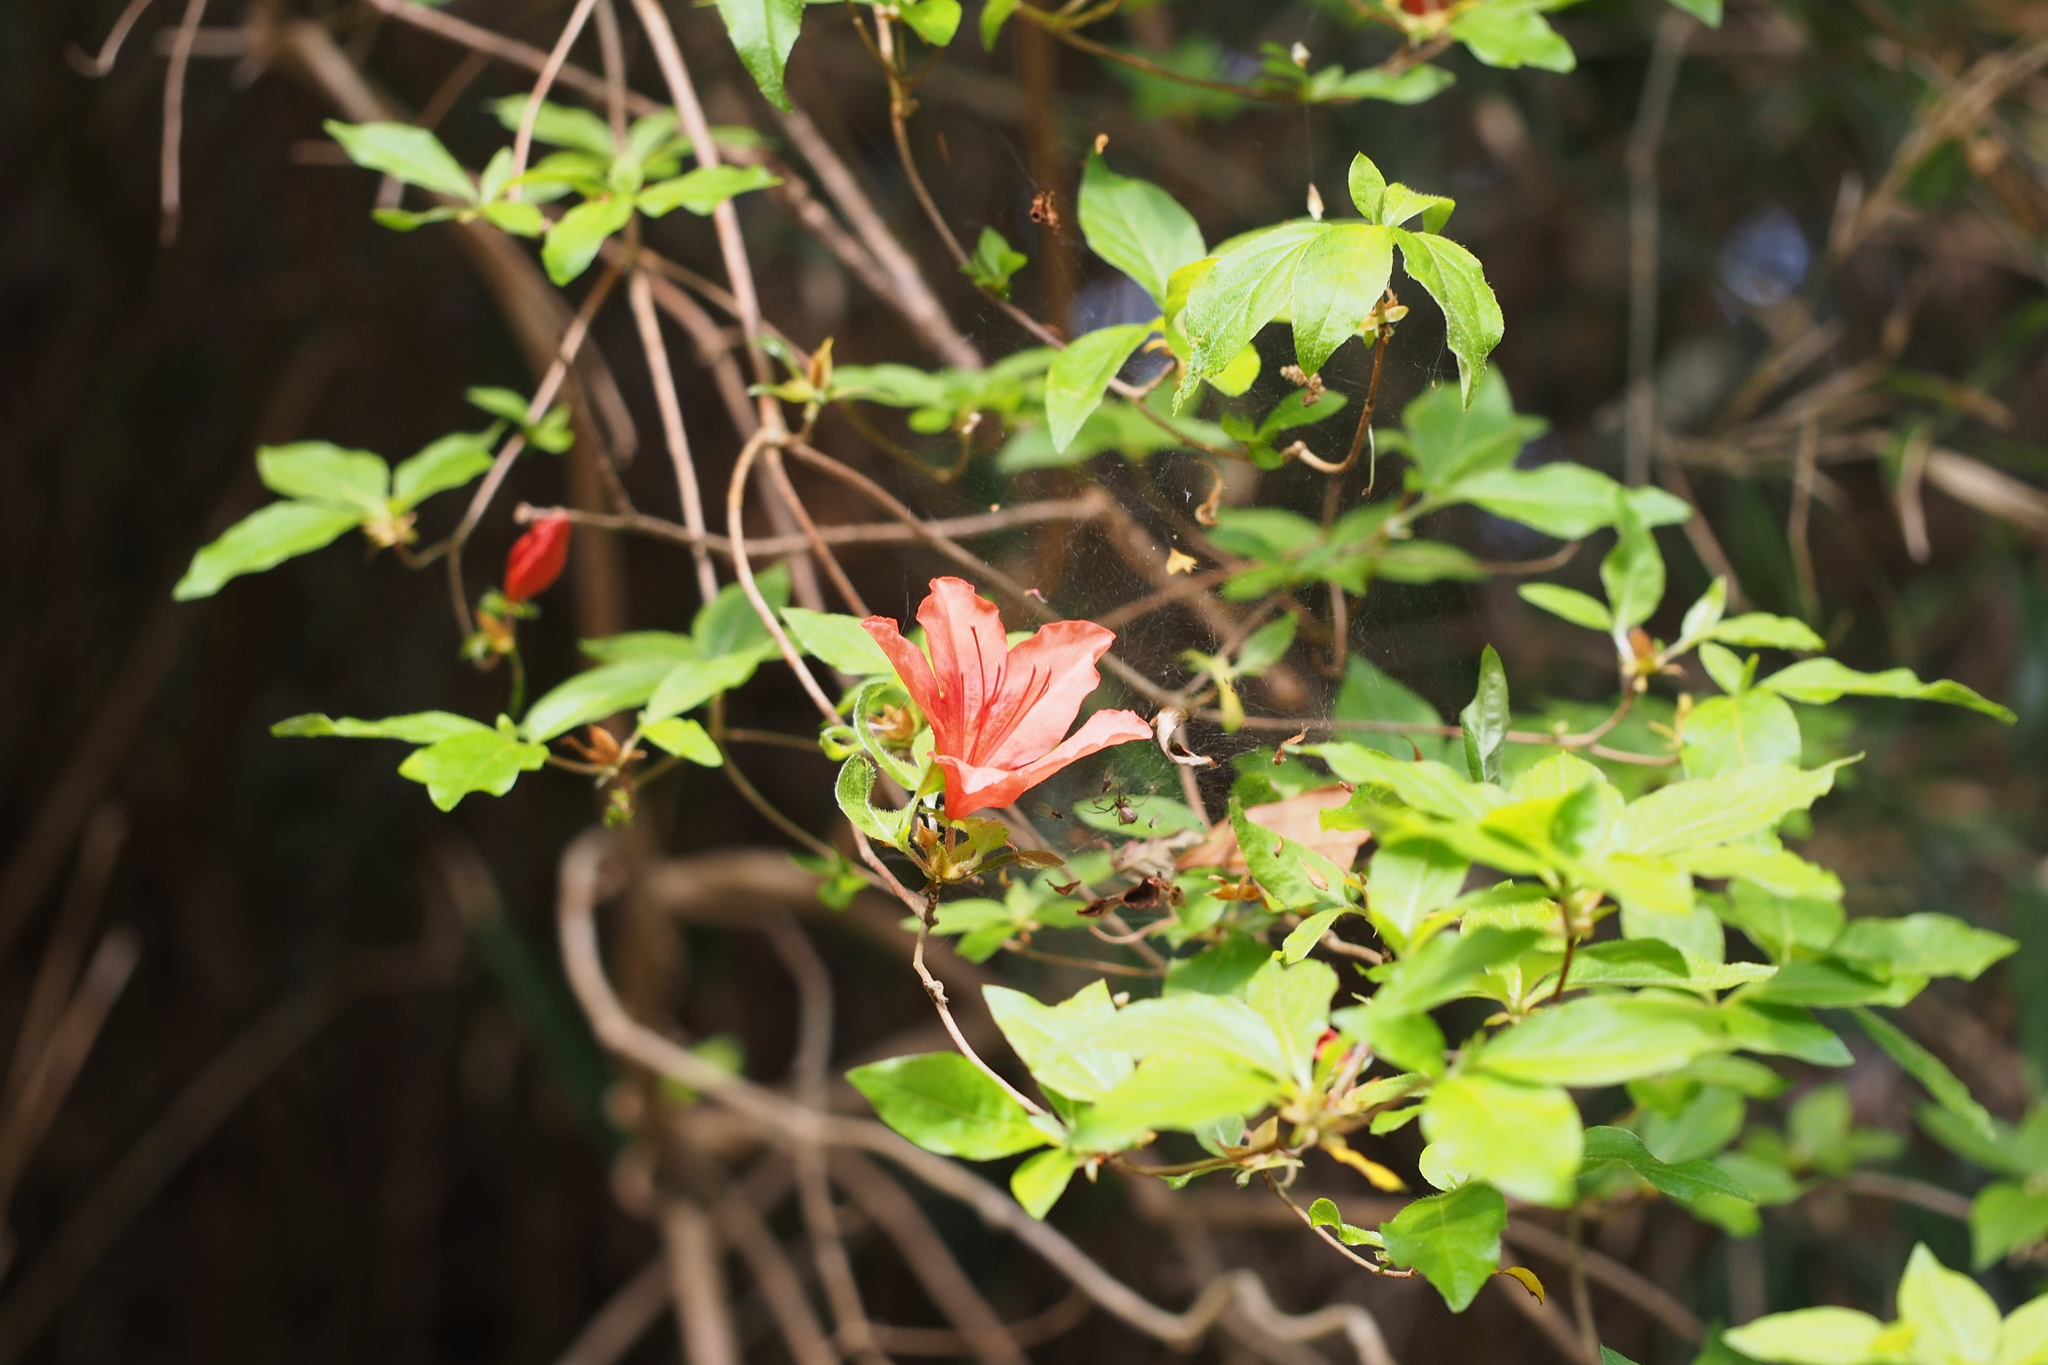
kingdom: Plantae
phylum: Tracheophyta
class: Magnoliopsida
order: Ericales
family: Ericaceae
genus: Rhododendron
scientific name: Rhododendron kaempferi
